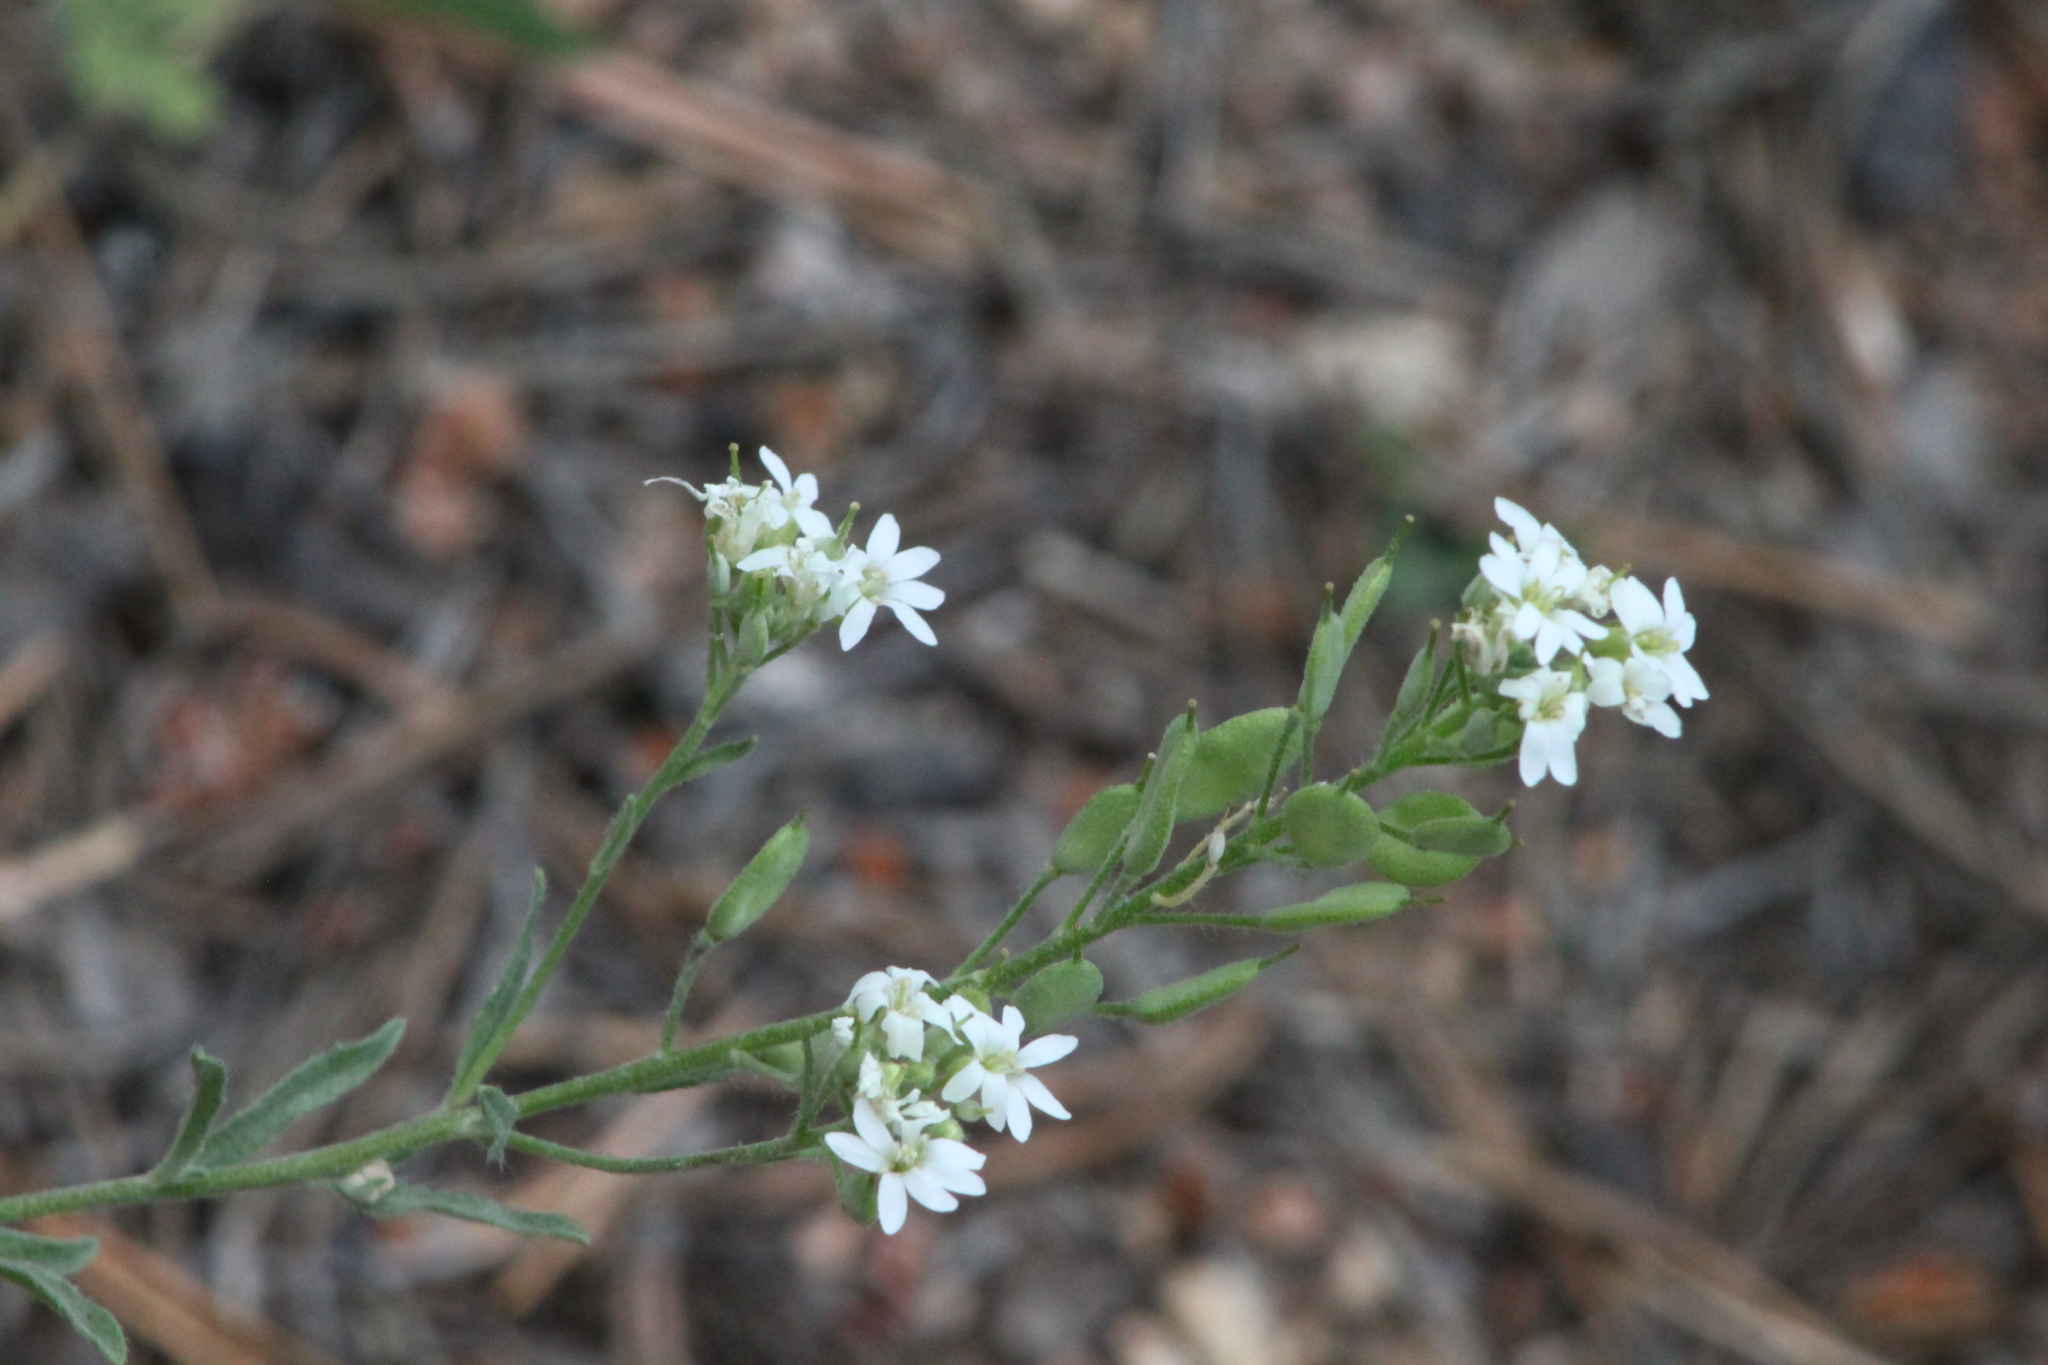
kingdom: Plantae
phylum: Tracheophyta
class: Magnoliopsida
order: Brassicales
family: Brassicaceae
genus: Berteroa
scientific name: Berteroa incana
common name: Hoary alison
